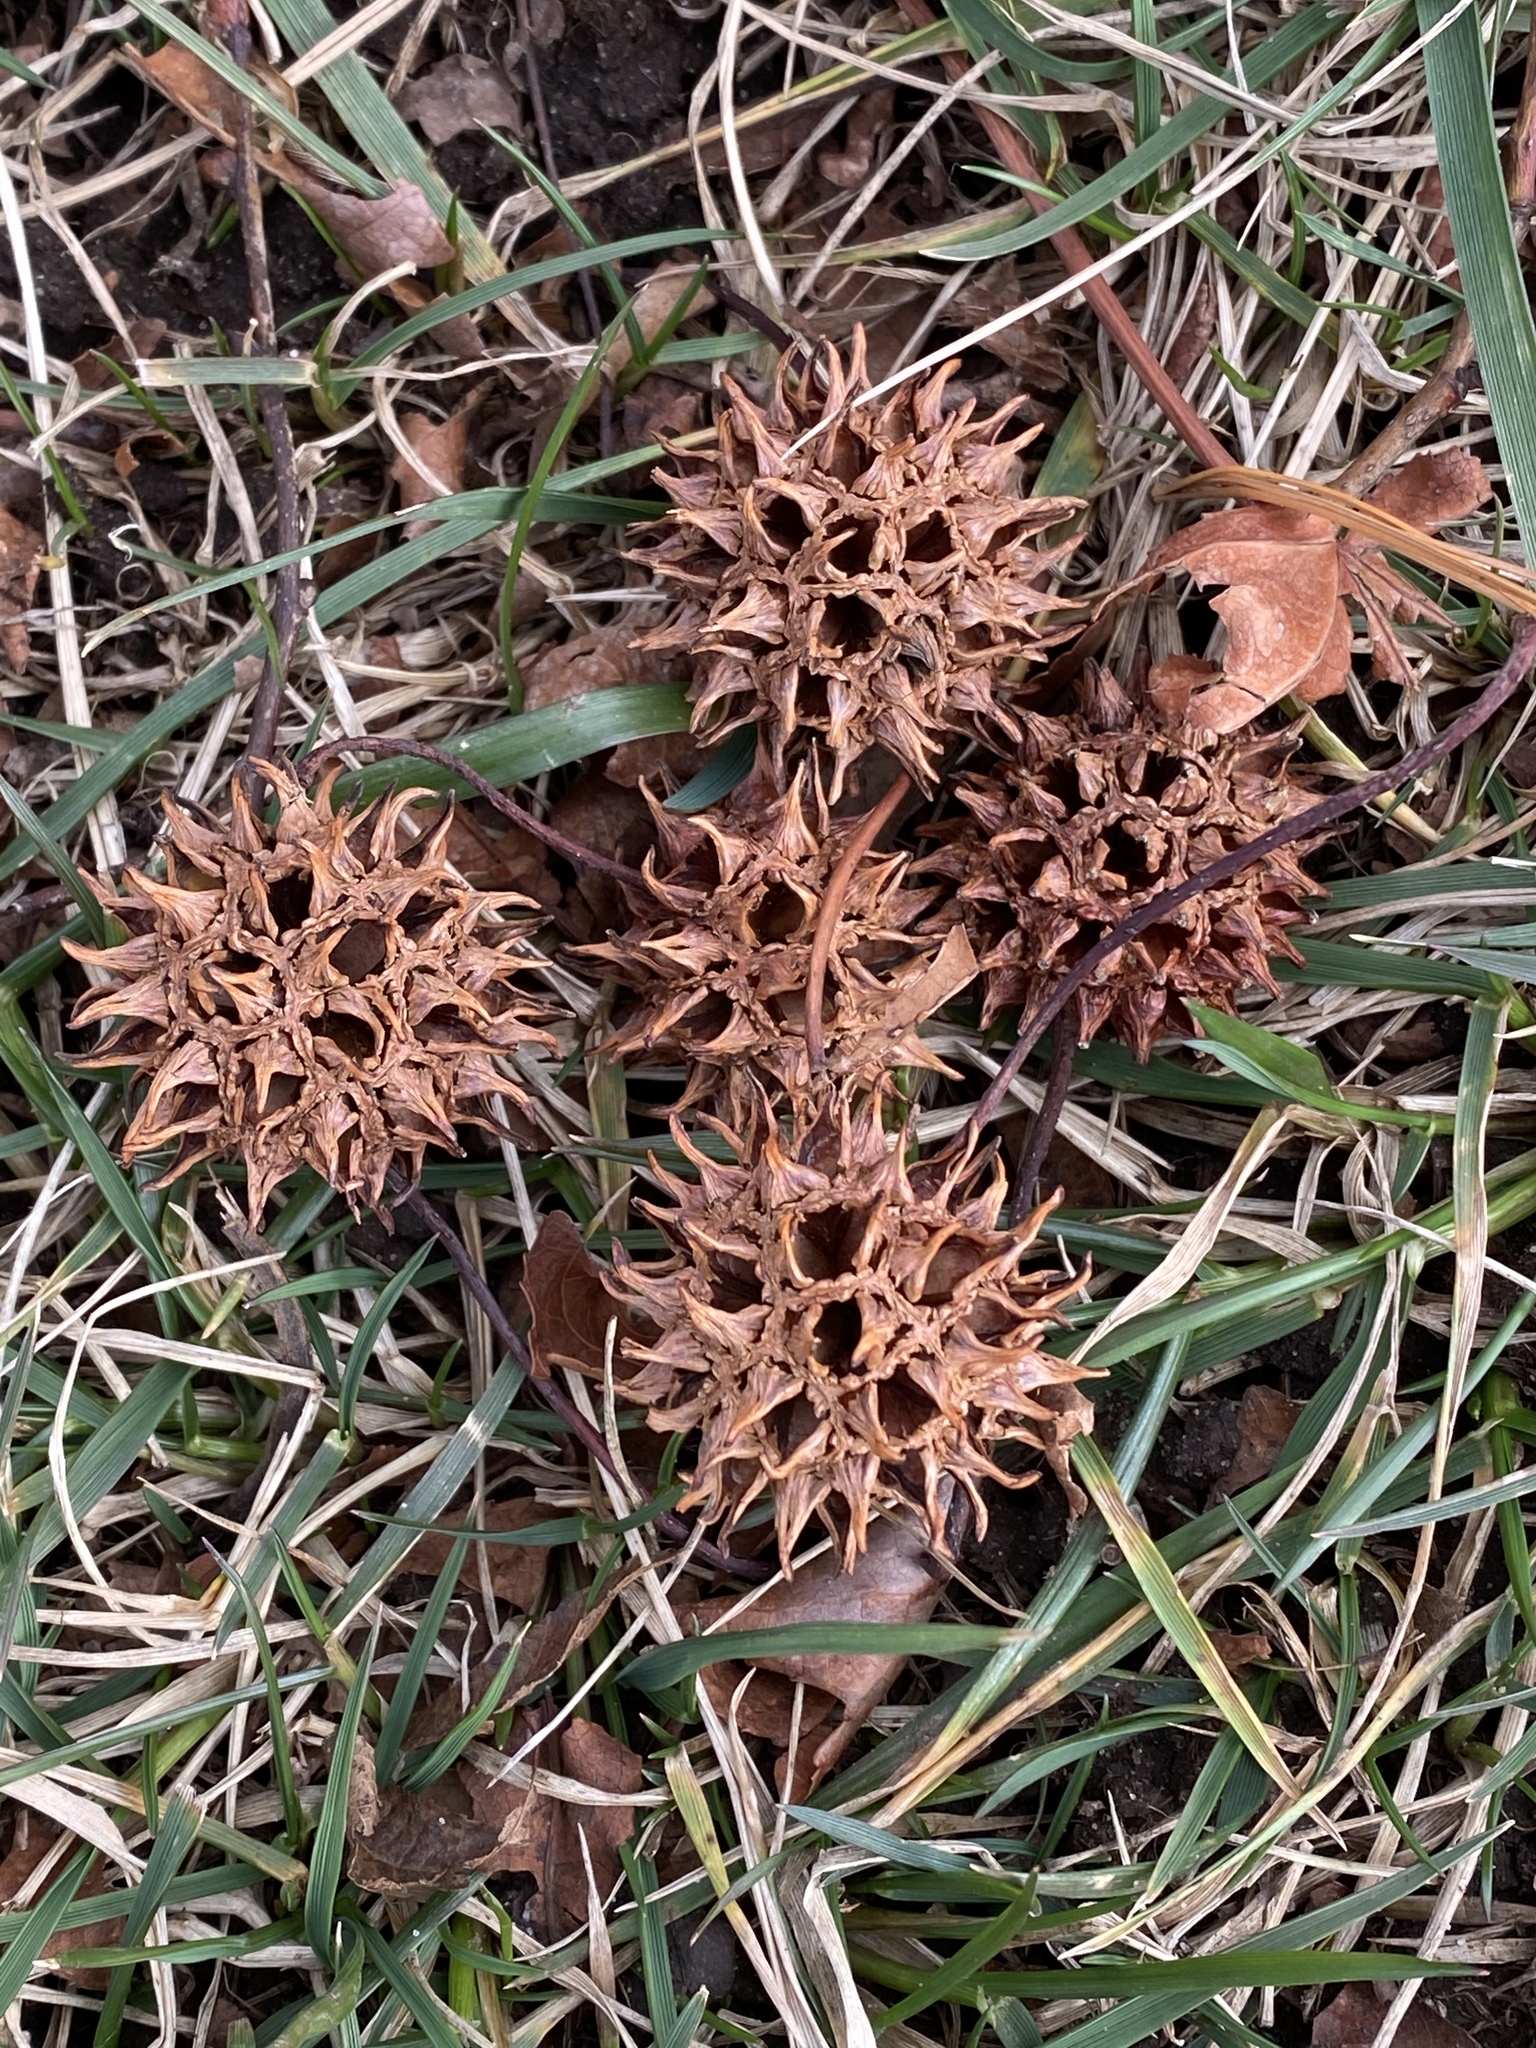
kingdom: Plantae
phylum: Tracheophyta
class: Magnoliopsida
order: Saxifragales
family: Altingiaceae
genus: Liquidambar
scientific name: Liquidambar styraciflua
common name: Sweet gum
